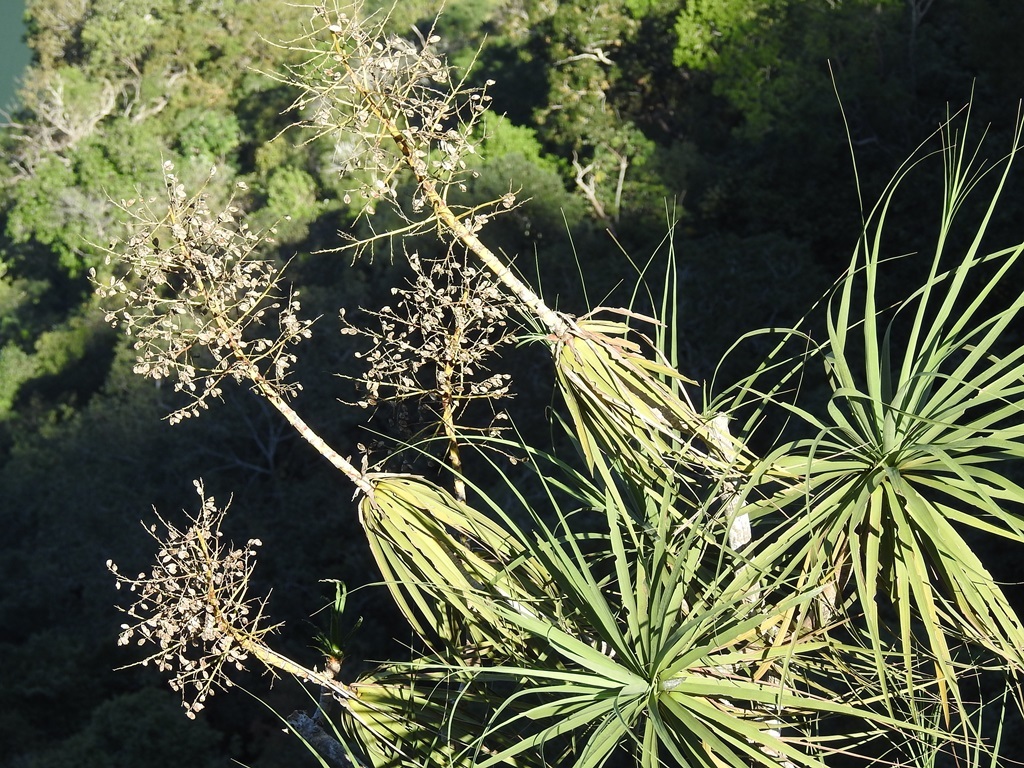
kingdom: Plantae
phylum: Tracheophyta
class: Liliopsida
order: Asparagales
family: Asparagaceae
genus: Beaucarnea
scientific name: Beaucarnea goldmanii
